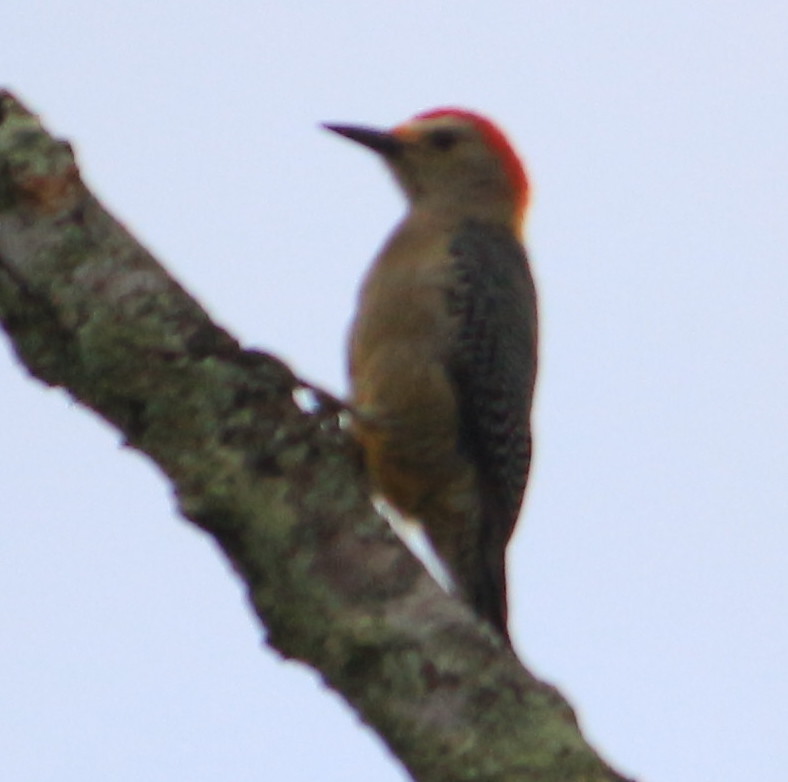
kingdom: Animalia
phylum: Chordata
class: Aves
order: Piciformes
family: Picidae
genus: Melanerpes
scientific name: Melanerpes aurifrons
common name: Golden-fronted woodpecker
